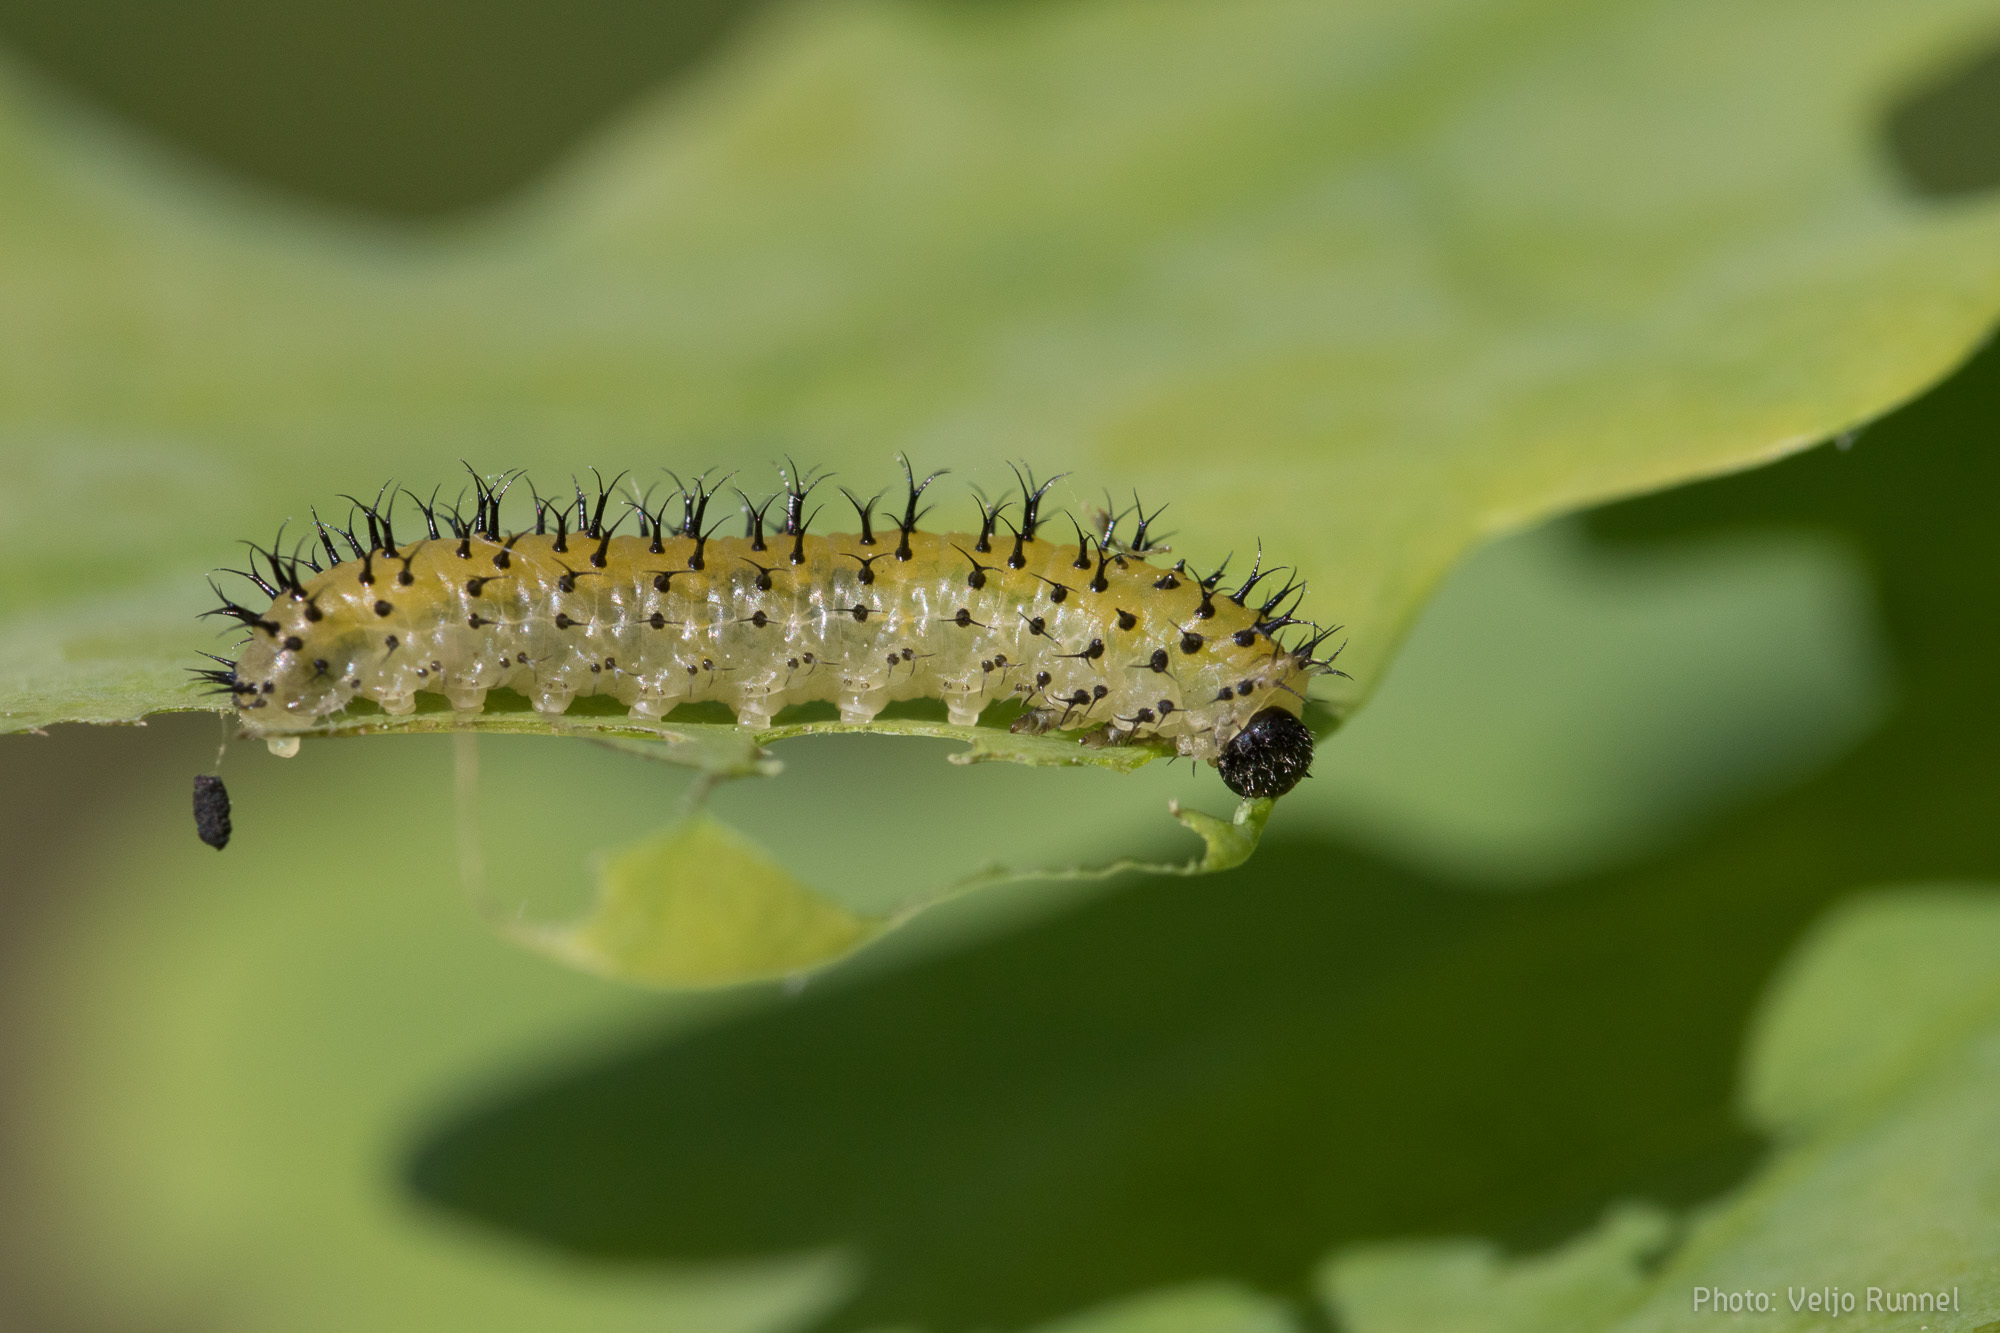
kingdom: Animalia
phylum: Arthropoda
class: Insecta
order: Hymenoptera
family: Tenthredinidae
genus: Periclista
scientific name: Periclista lineolata
